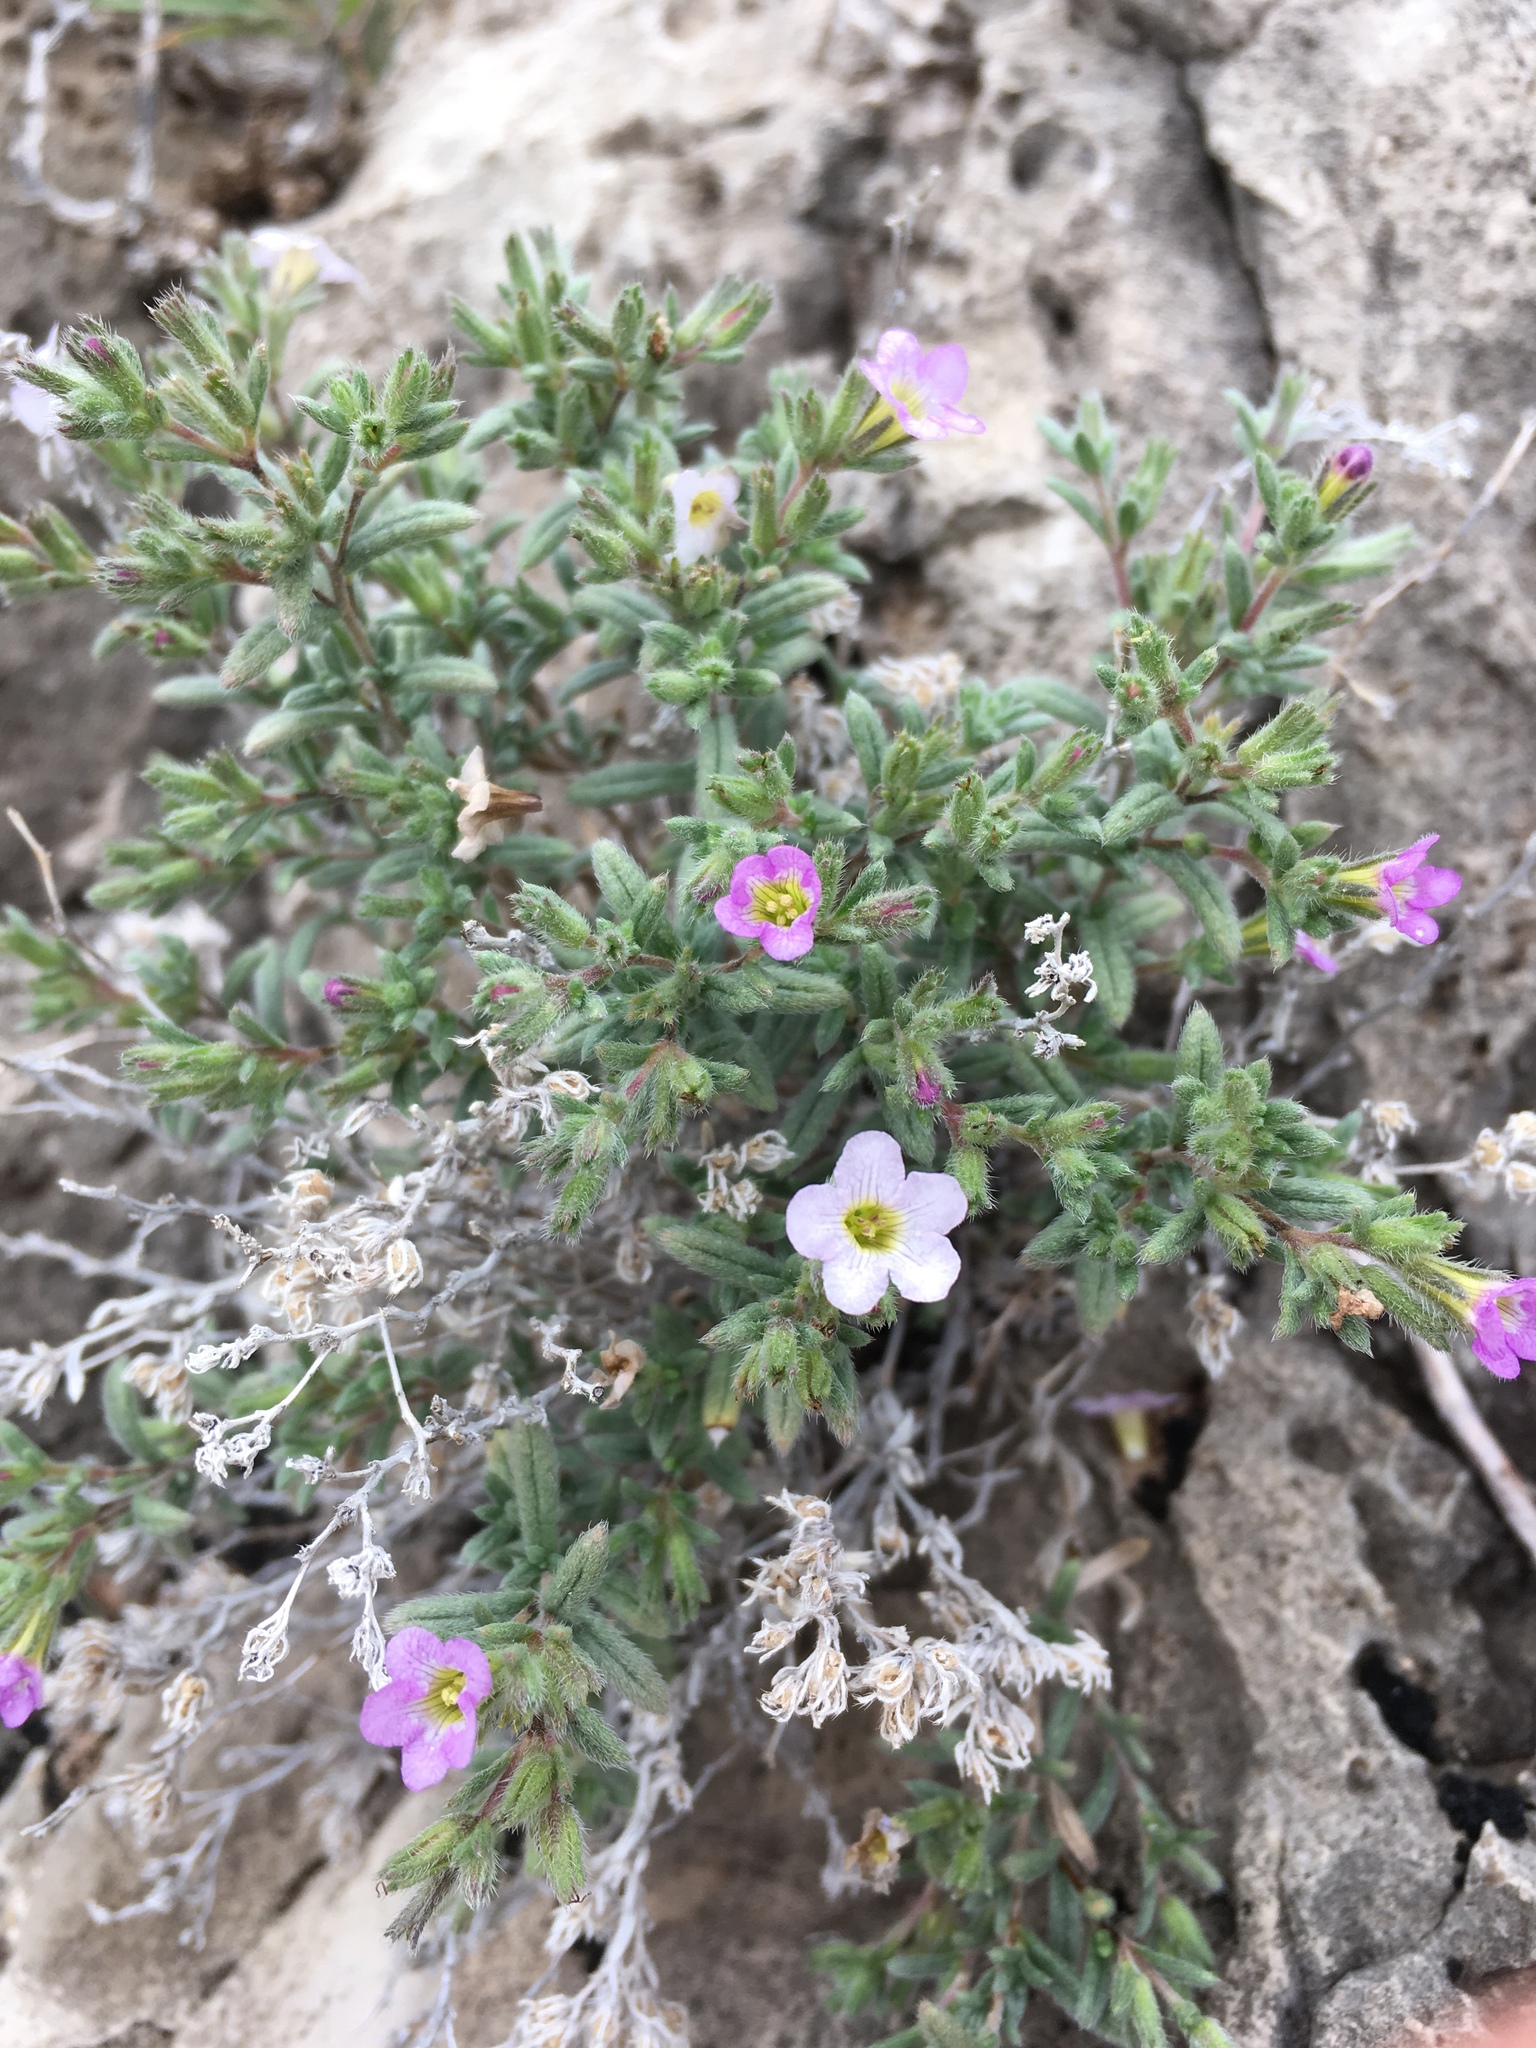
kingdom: Plantae
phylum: Tracheophyta
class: Magnoliopsida
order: Boraginales
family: Namaceae
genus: Nama
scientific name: Nama xylopoda
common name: Yellowseed fiddleleaf
